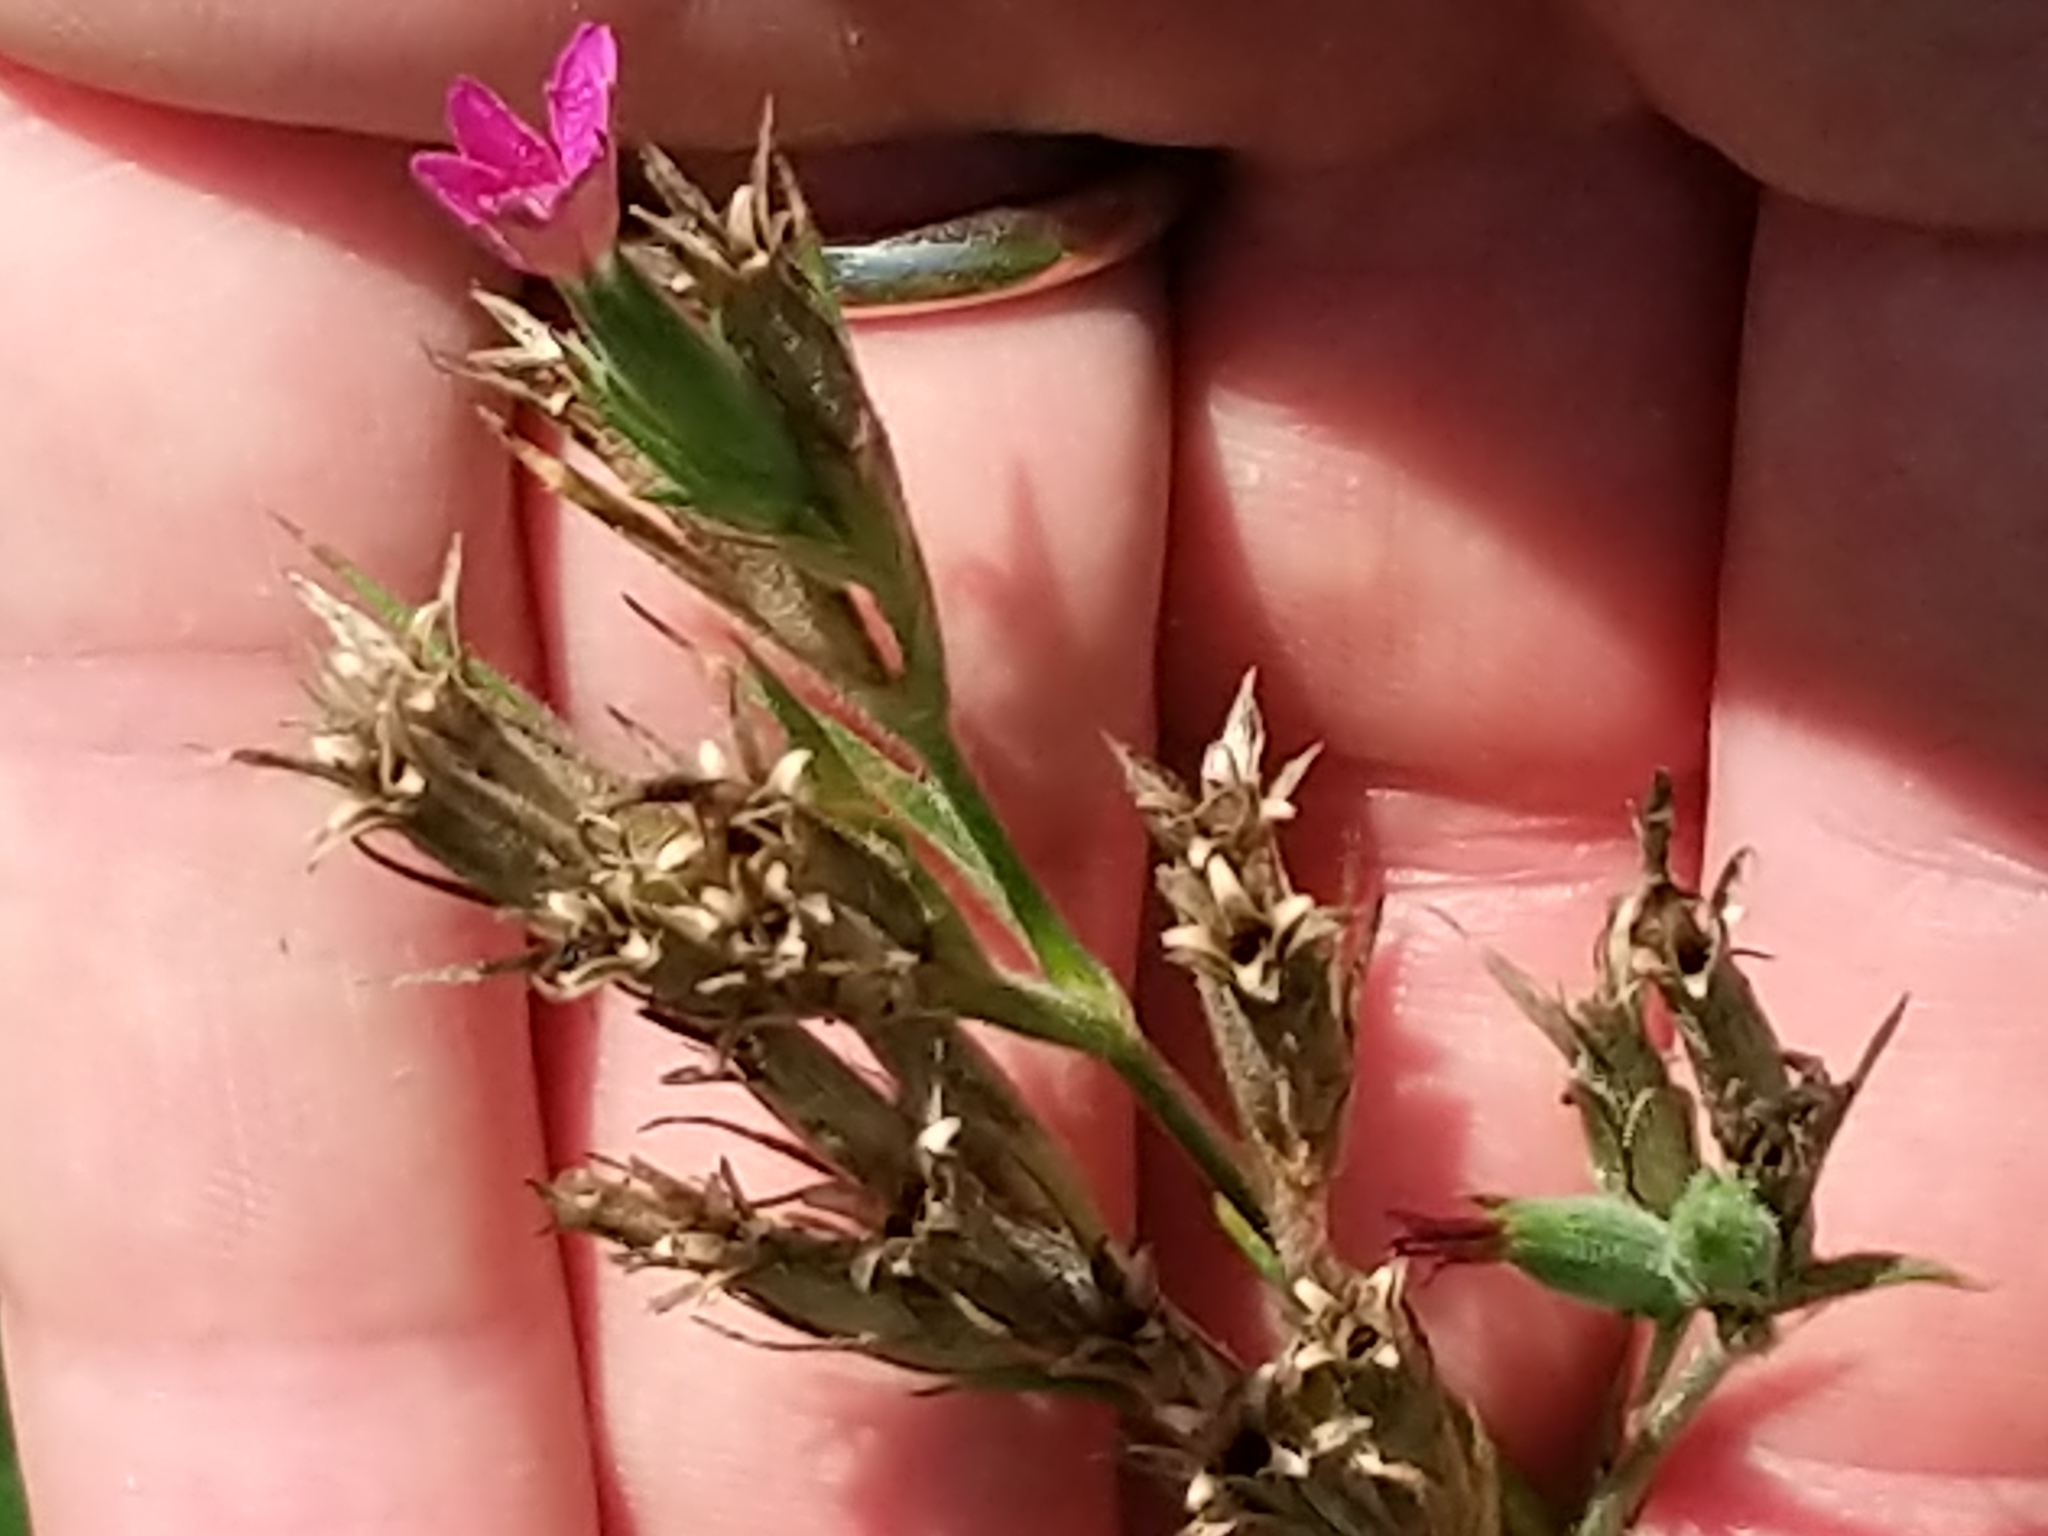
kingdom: Plantae
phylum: Tracheophyta
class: Magnoliopsida
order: Caryophyllales
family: Caryophyllaceae
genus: Dianthus
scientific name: Dianthus armeria
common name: Deptford pink
